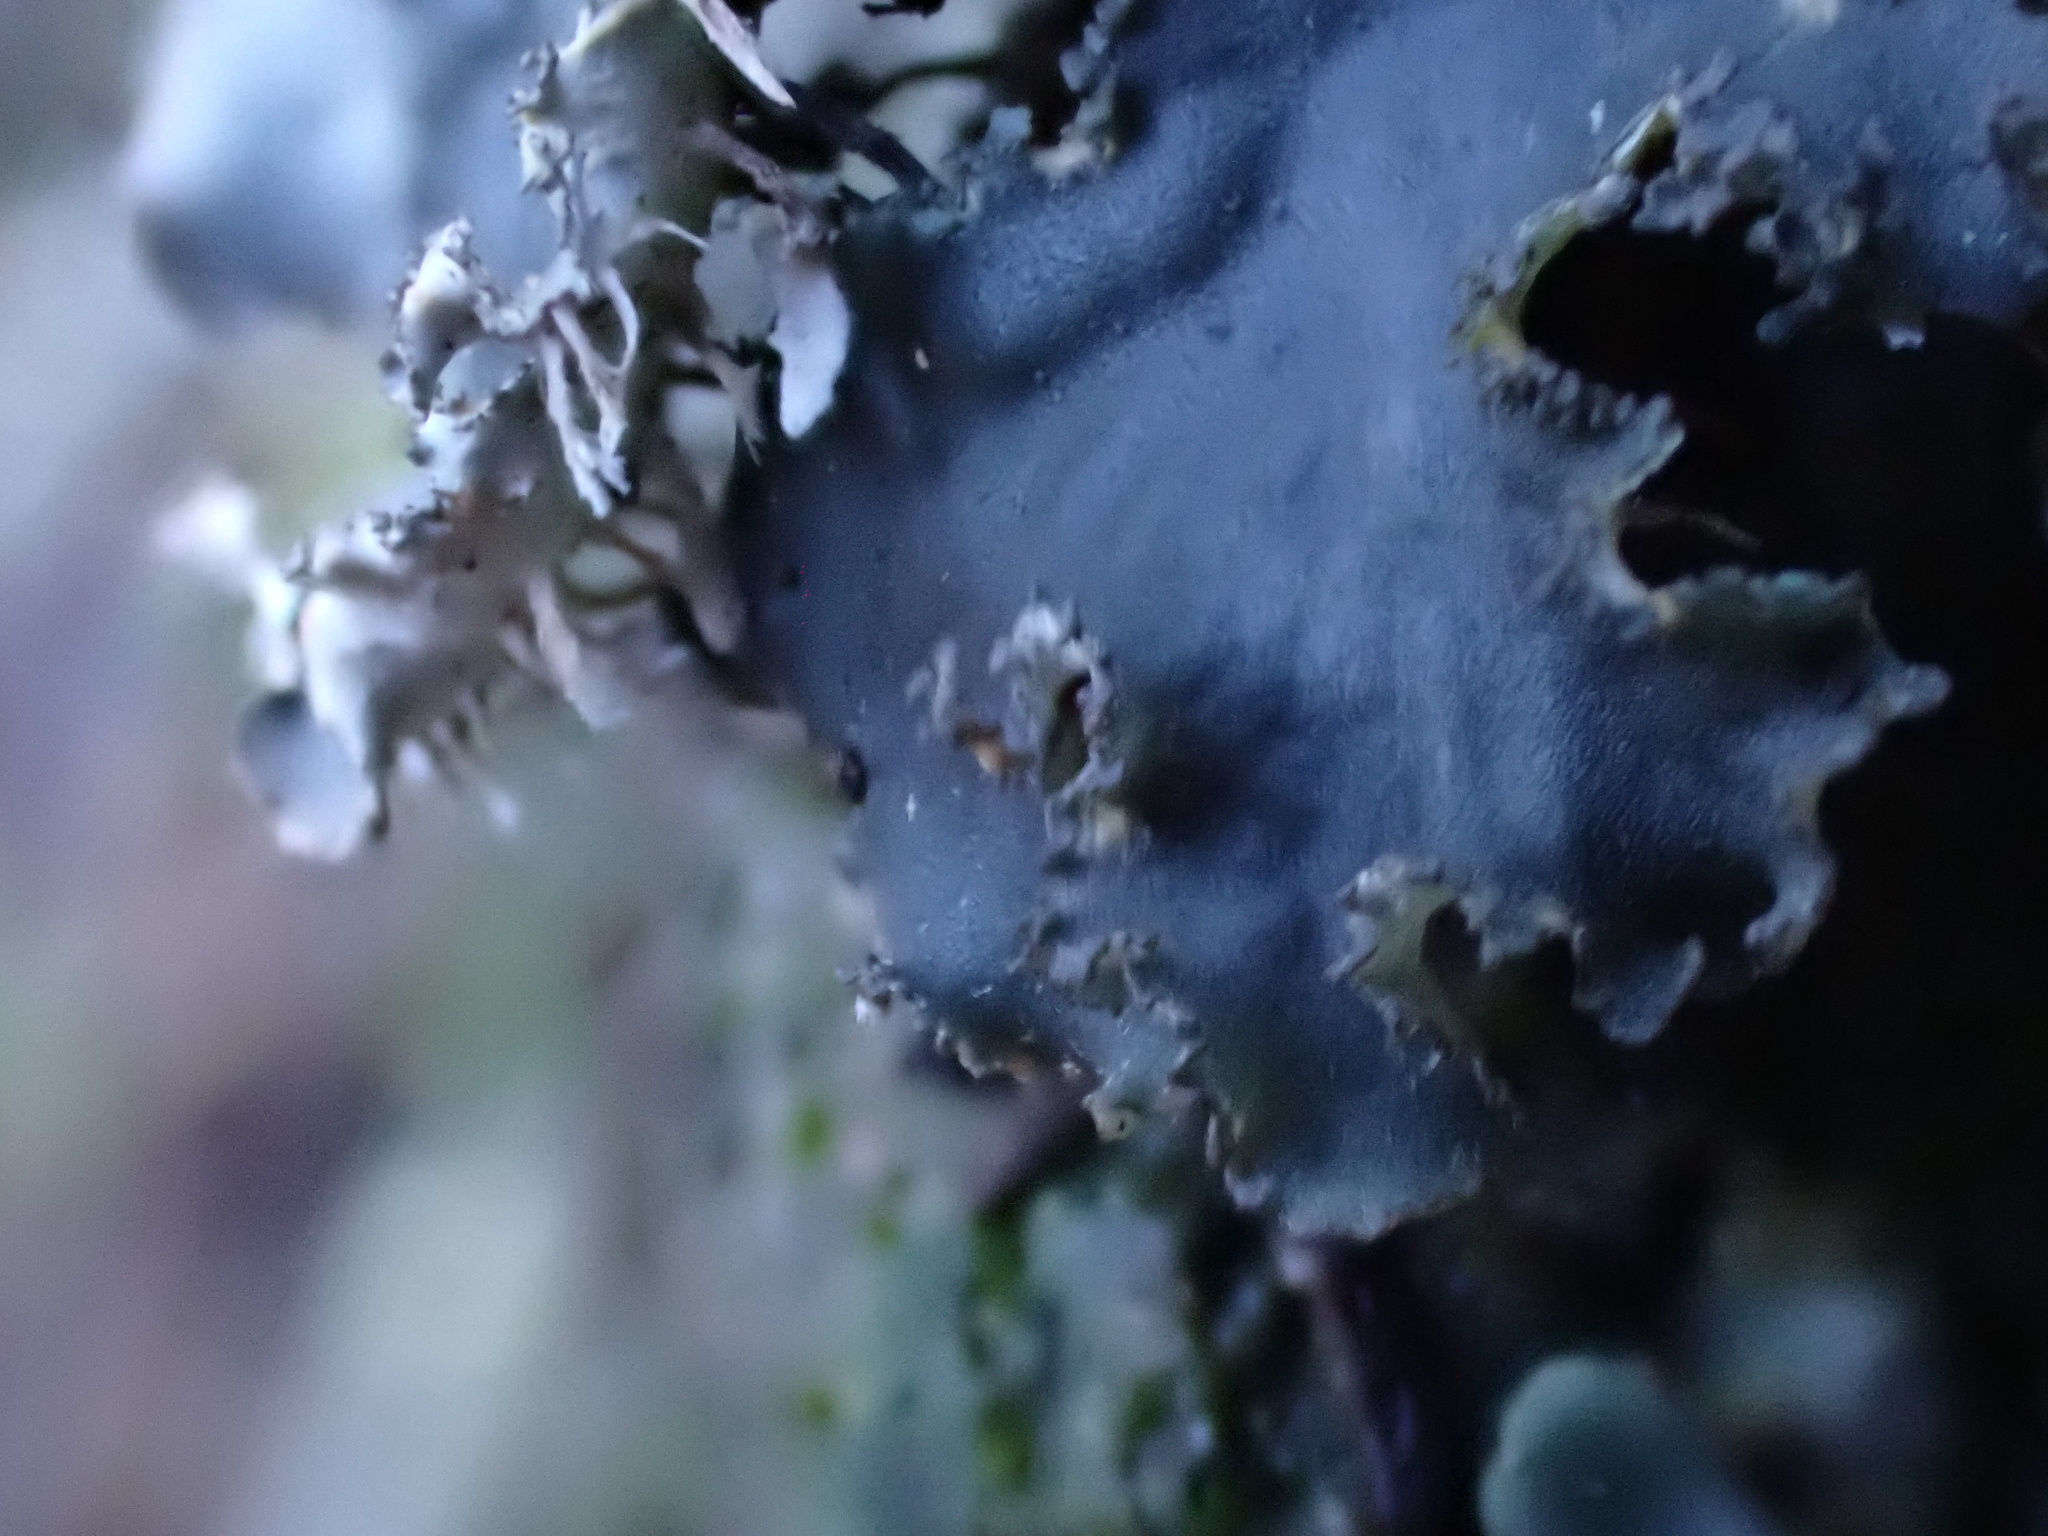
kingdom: Fungi
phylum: Ascomycota
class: Lecanoromycetes
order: Peltigerales
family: Peltigeraceae
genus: Peltigera
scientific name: Peltigera praetextata
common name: Scaly dog-lichen
